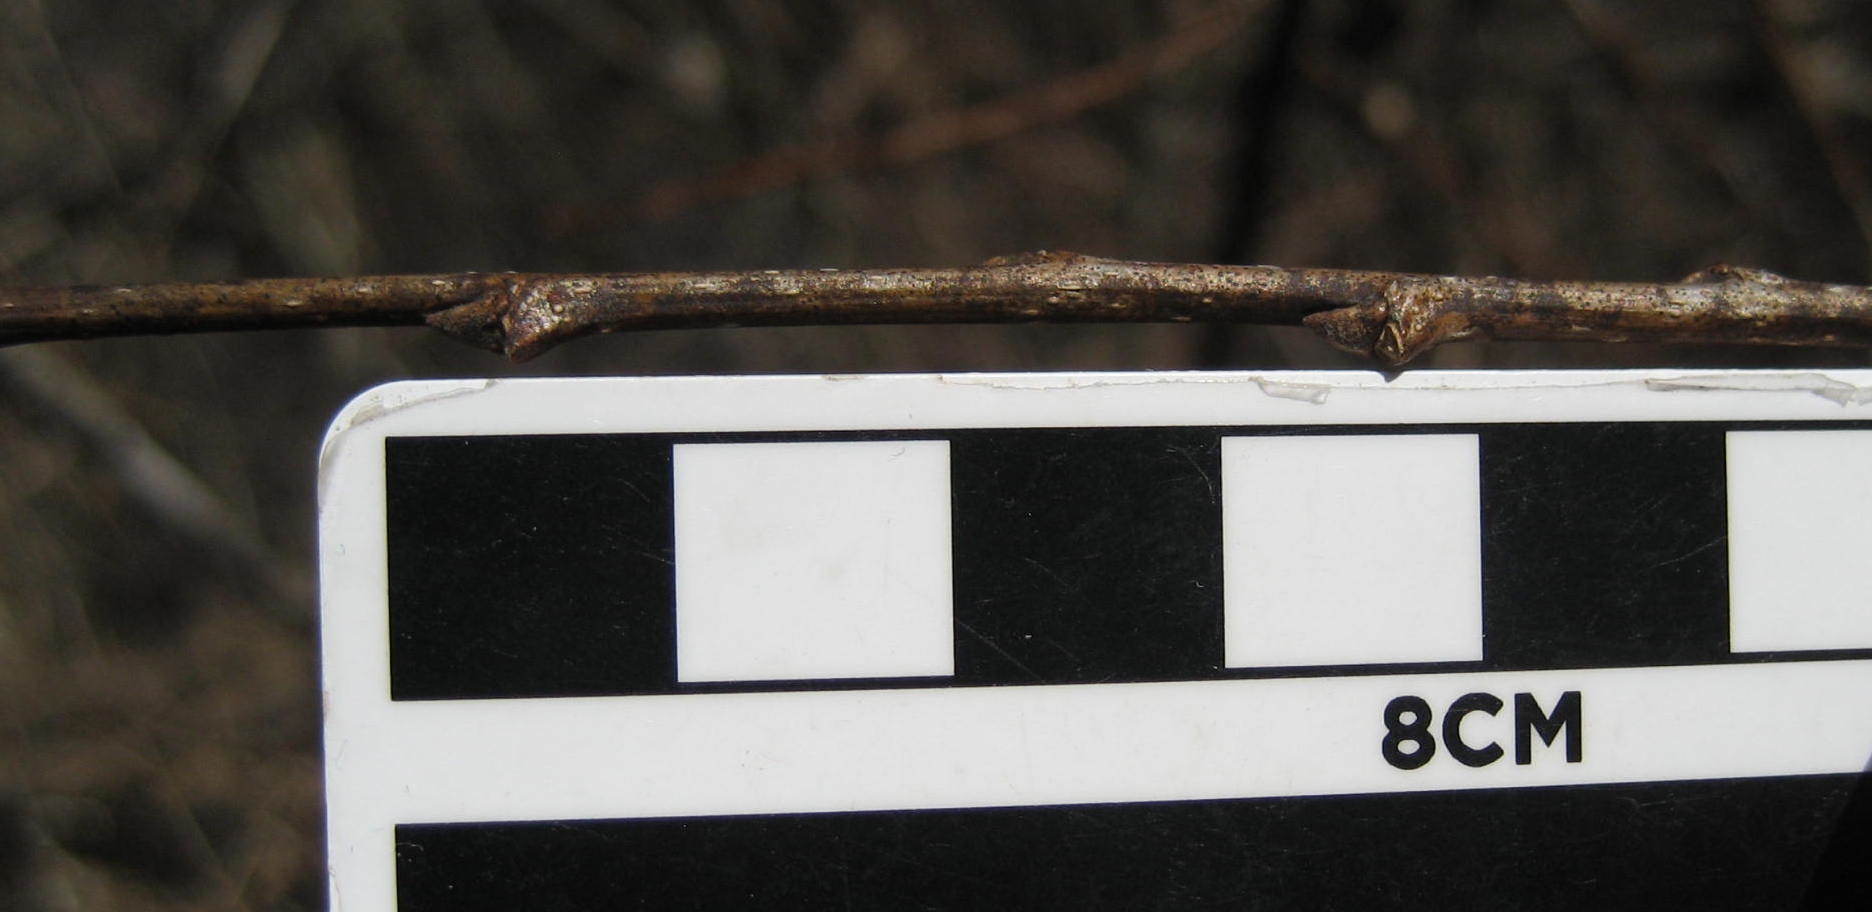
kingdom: Plantae
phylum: Tracheophyta
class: Magnoliopsida
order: Rosales
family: Cannabaceae
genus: Celtis
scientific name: Celtis occidentalis
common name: Common hackberry
